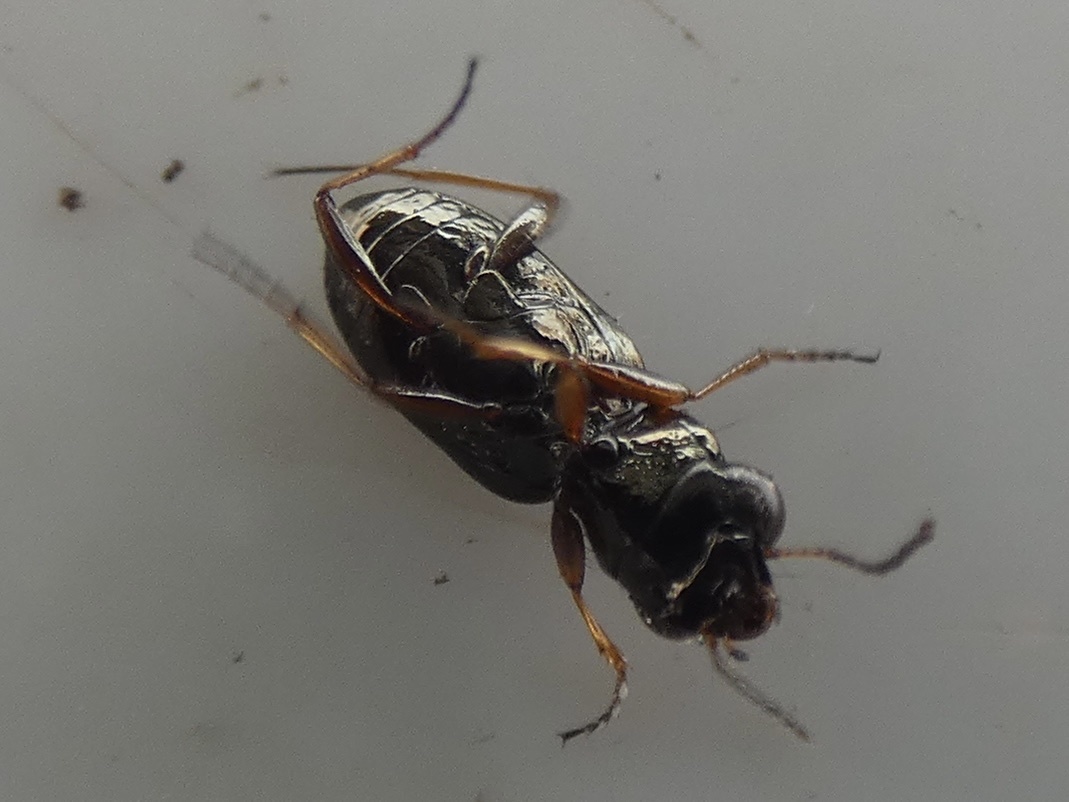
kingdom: Animalia
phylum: Arthropoda
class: Insecta
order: Coleoptera
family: Carabidae
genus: Notiophilus
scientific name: Notiophilus rufipes
